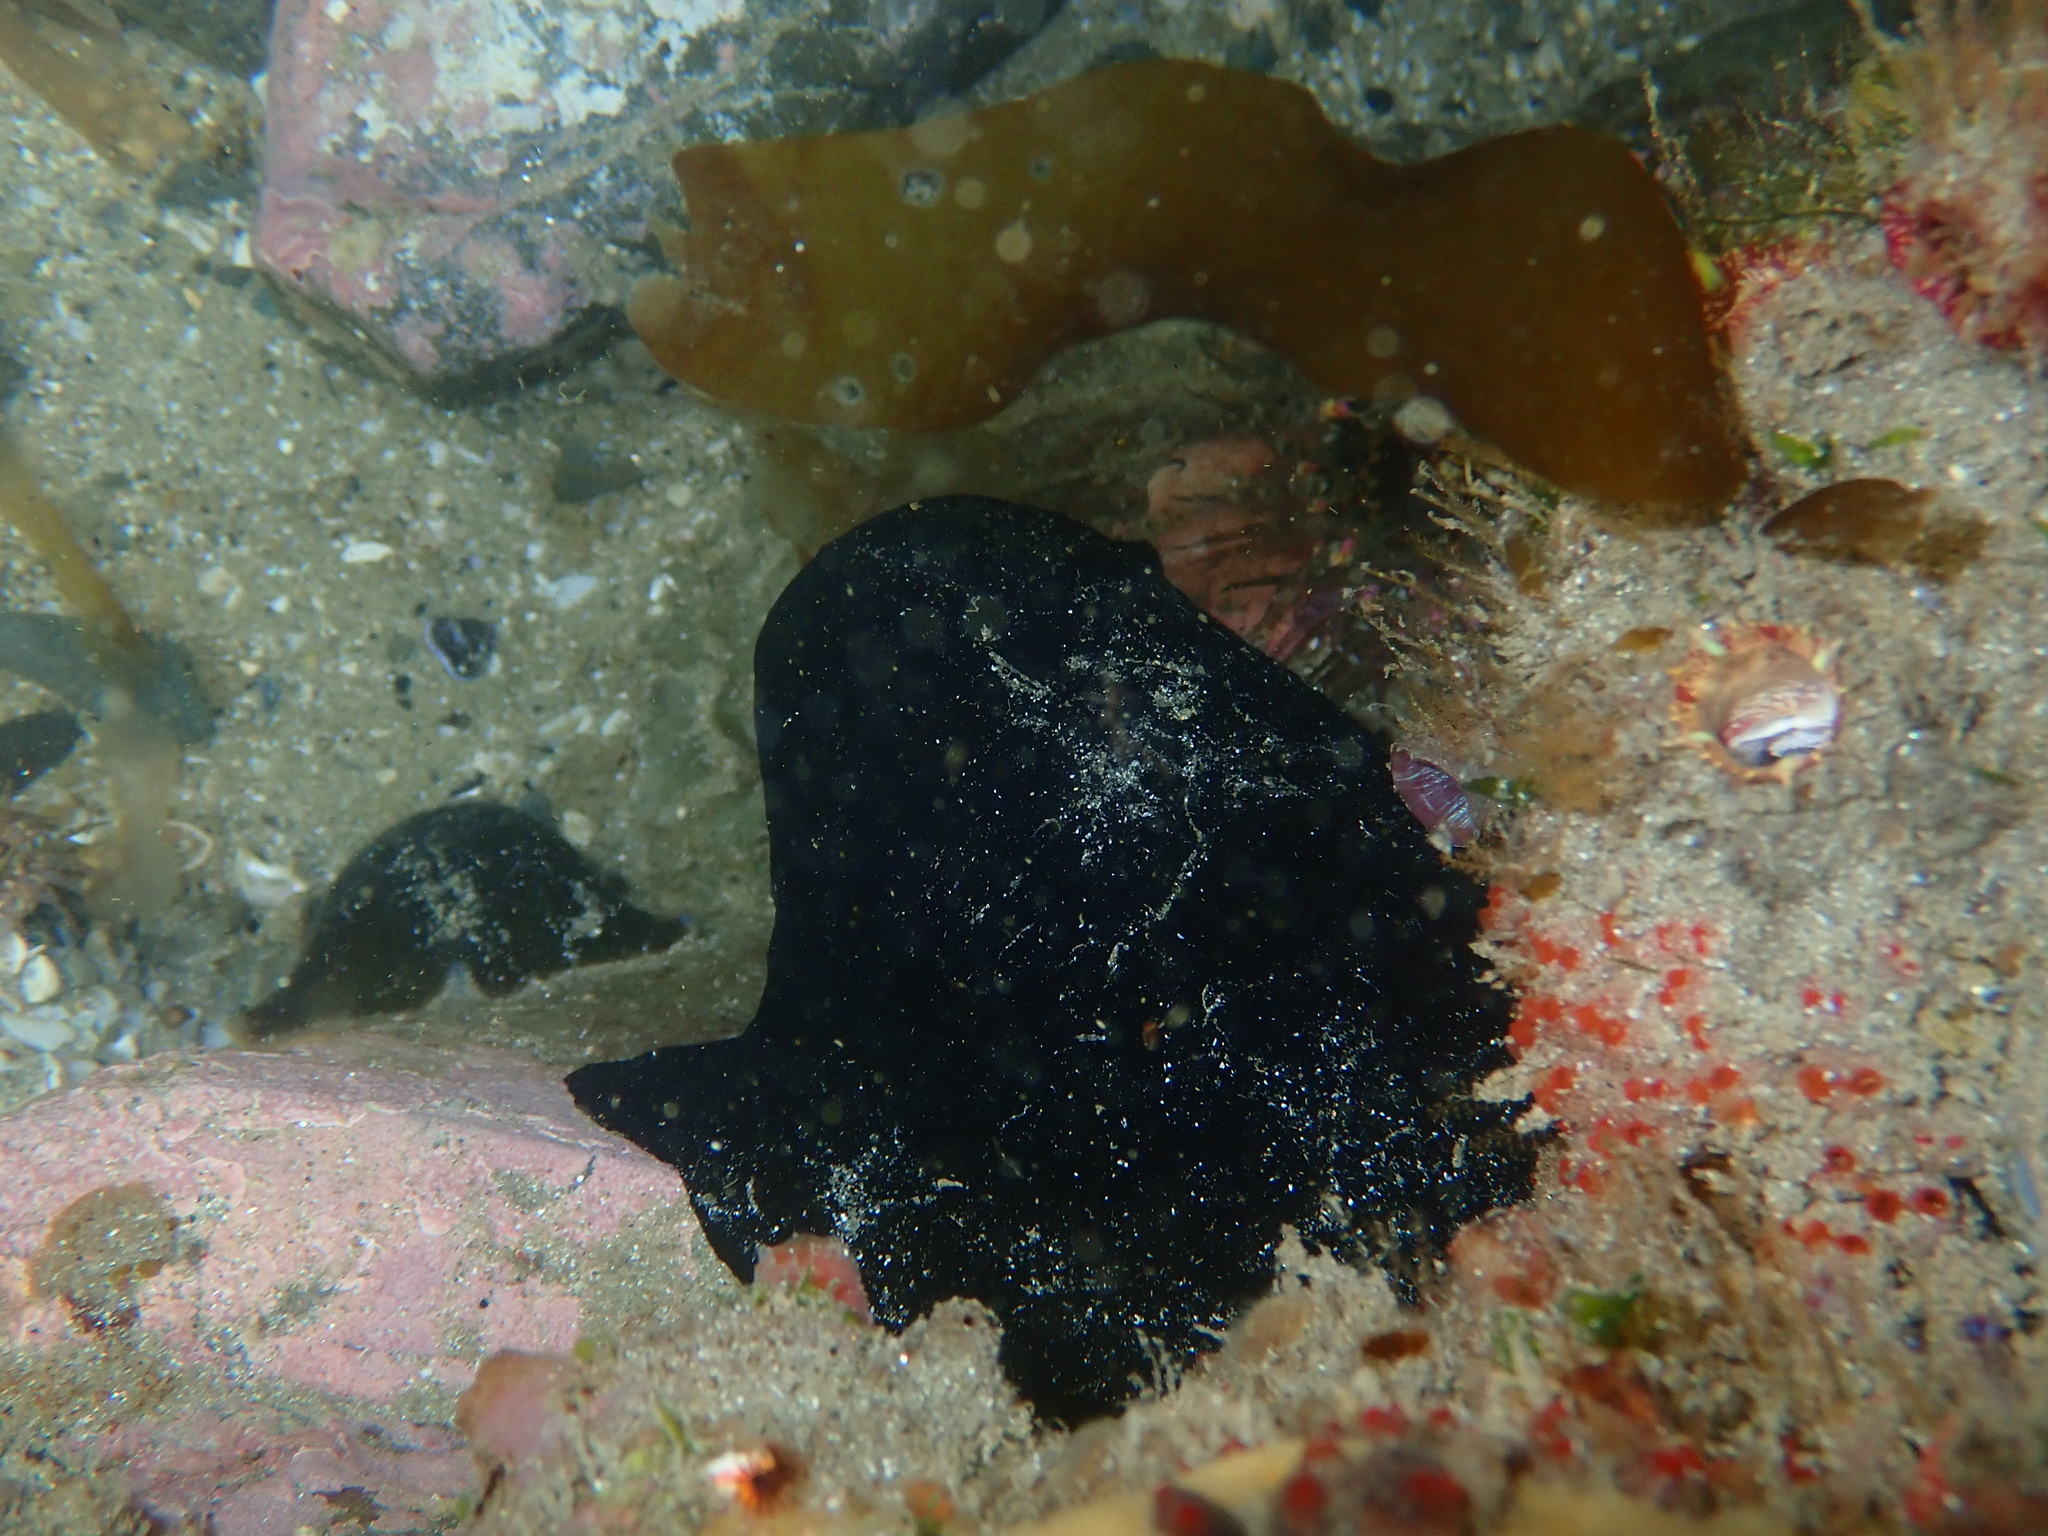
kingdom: Animalia
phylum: Mollusca
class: Gastropoda
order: Lepetellida
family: Fissurellidae
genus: Scutus
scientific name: Scutus breviculus
